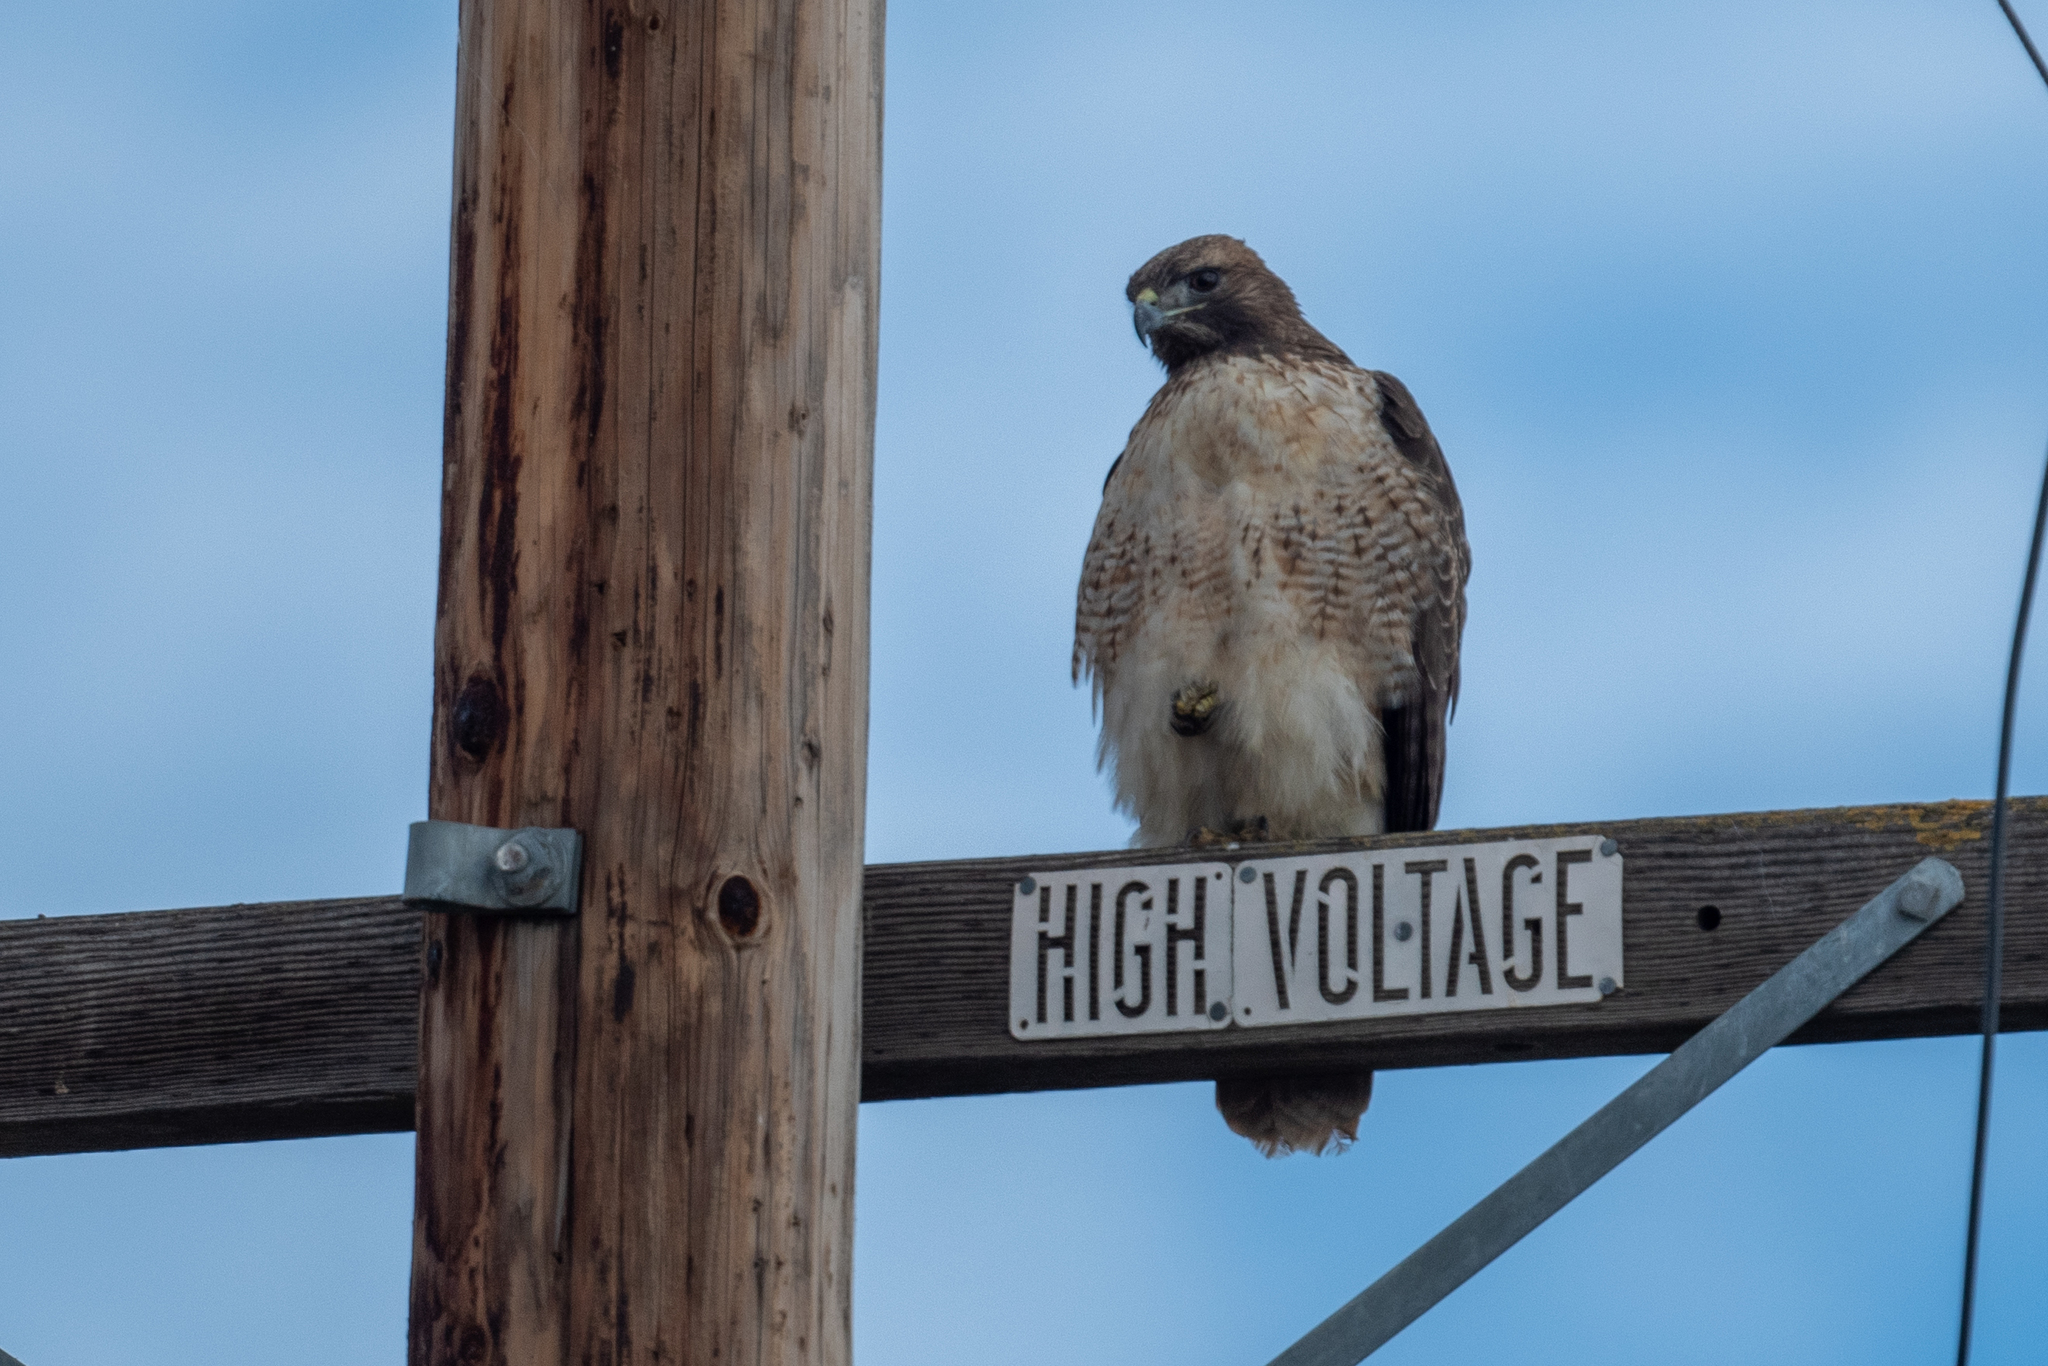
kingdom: Animalia
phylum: Chordata
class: Aves
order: Accipitriformes
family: Accipitridae
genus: Buteo
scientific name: Buteo jamaicensis
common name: Red-tailed hawk
